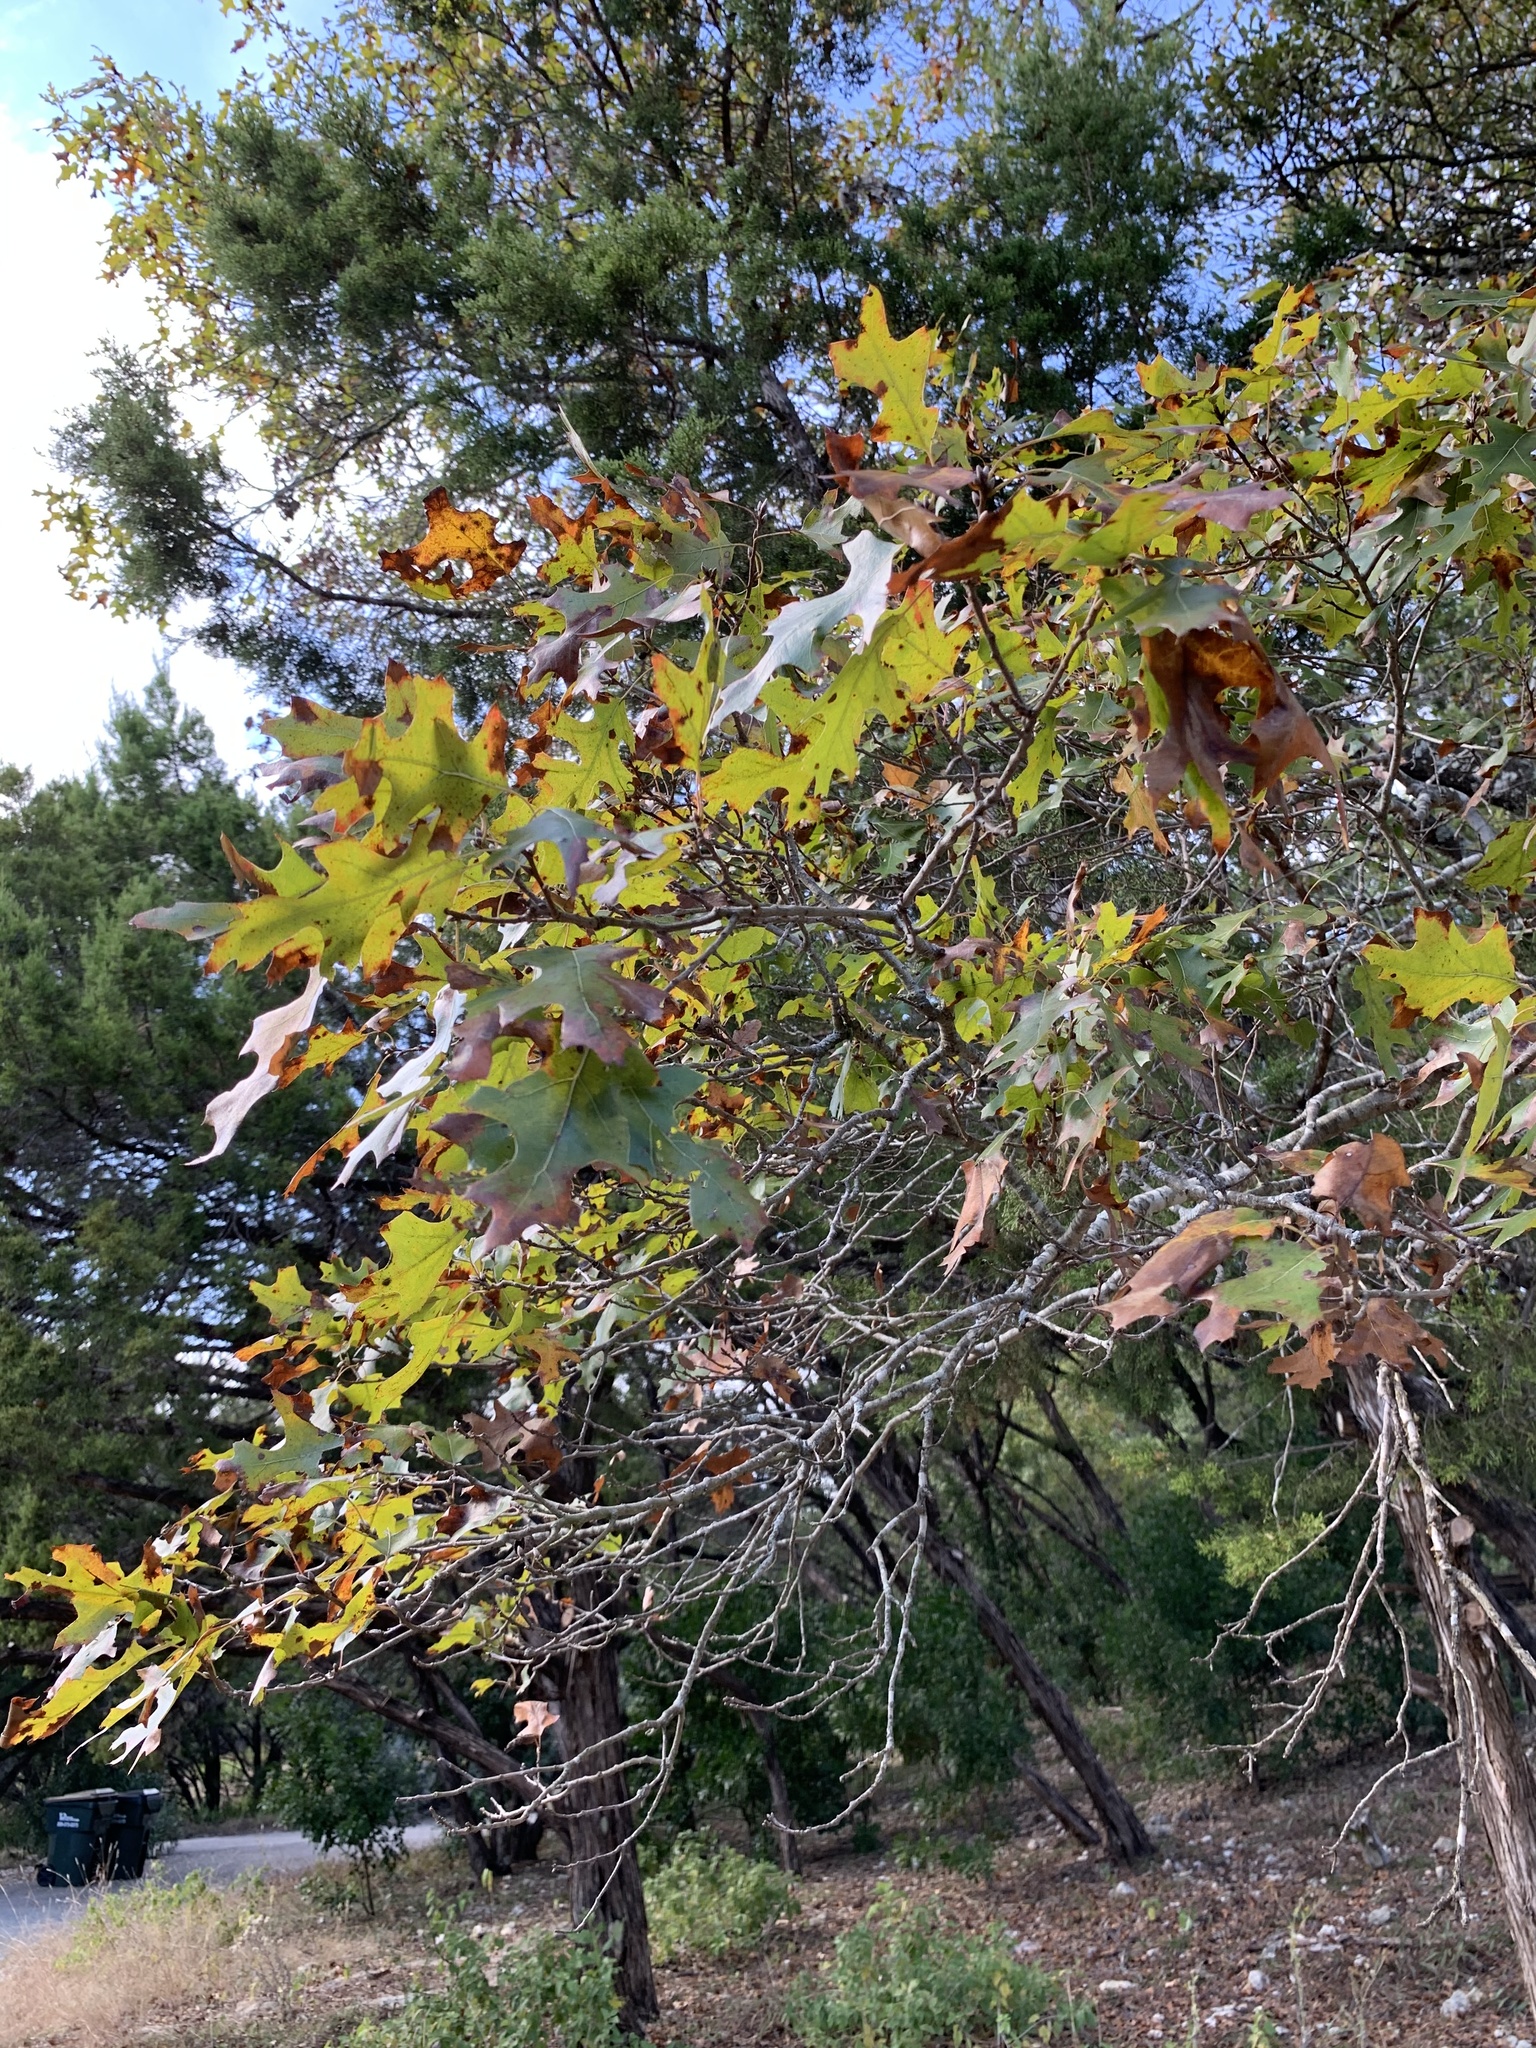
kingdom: Plantae
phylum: Tracheophyta
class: Magnoliopsida
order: Fagales
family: Fagaceae
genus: Quercus
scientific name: Quercus buckleyi
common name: Buckley oak
